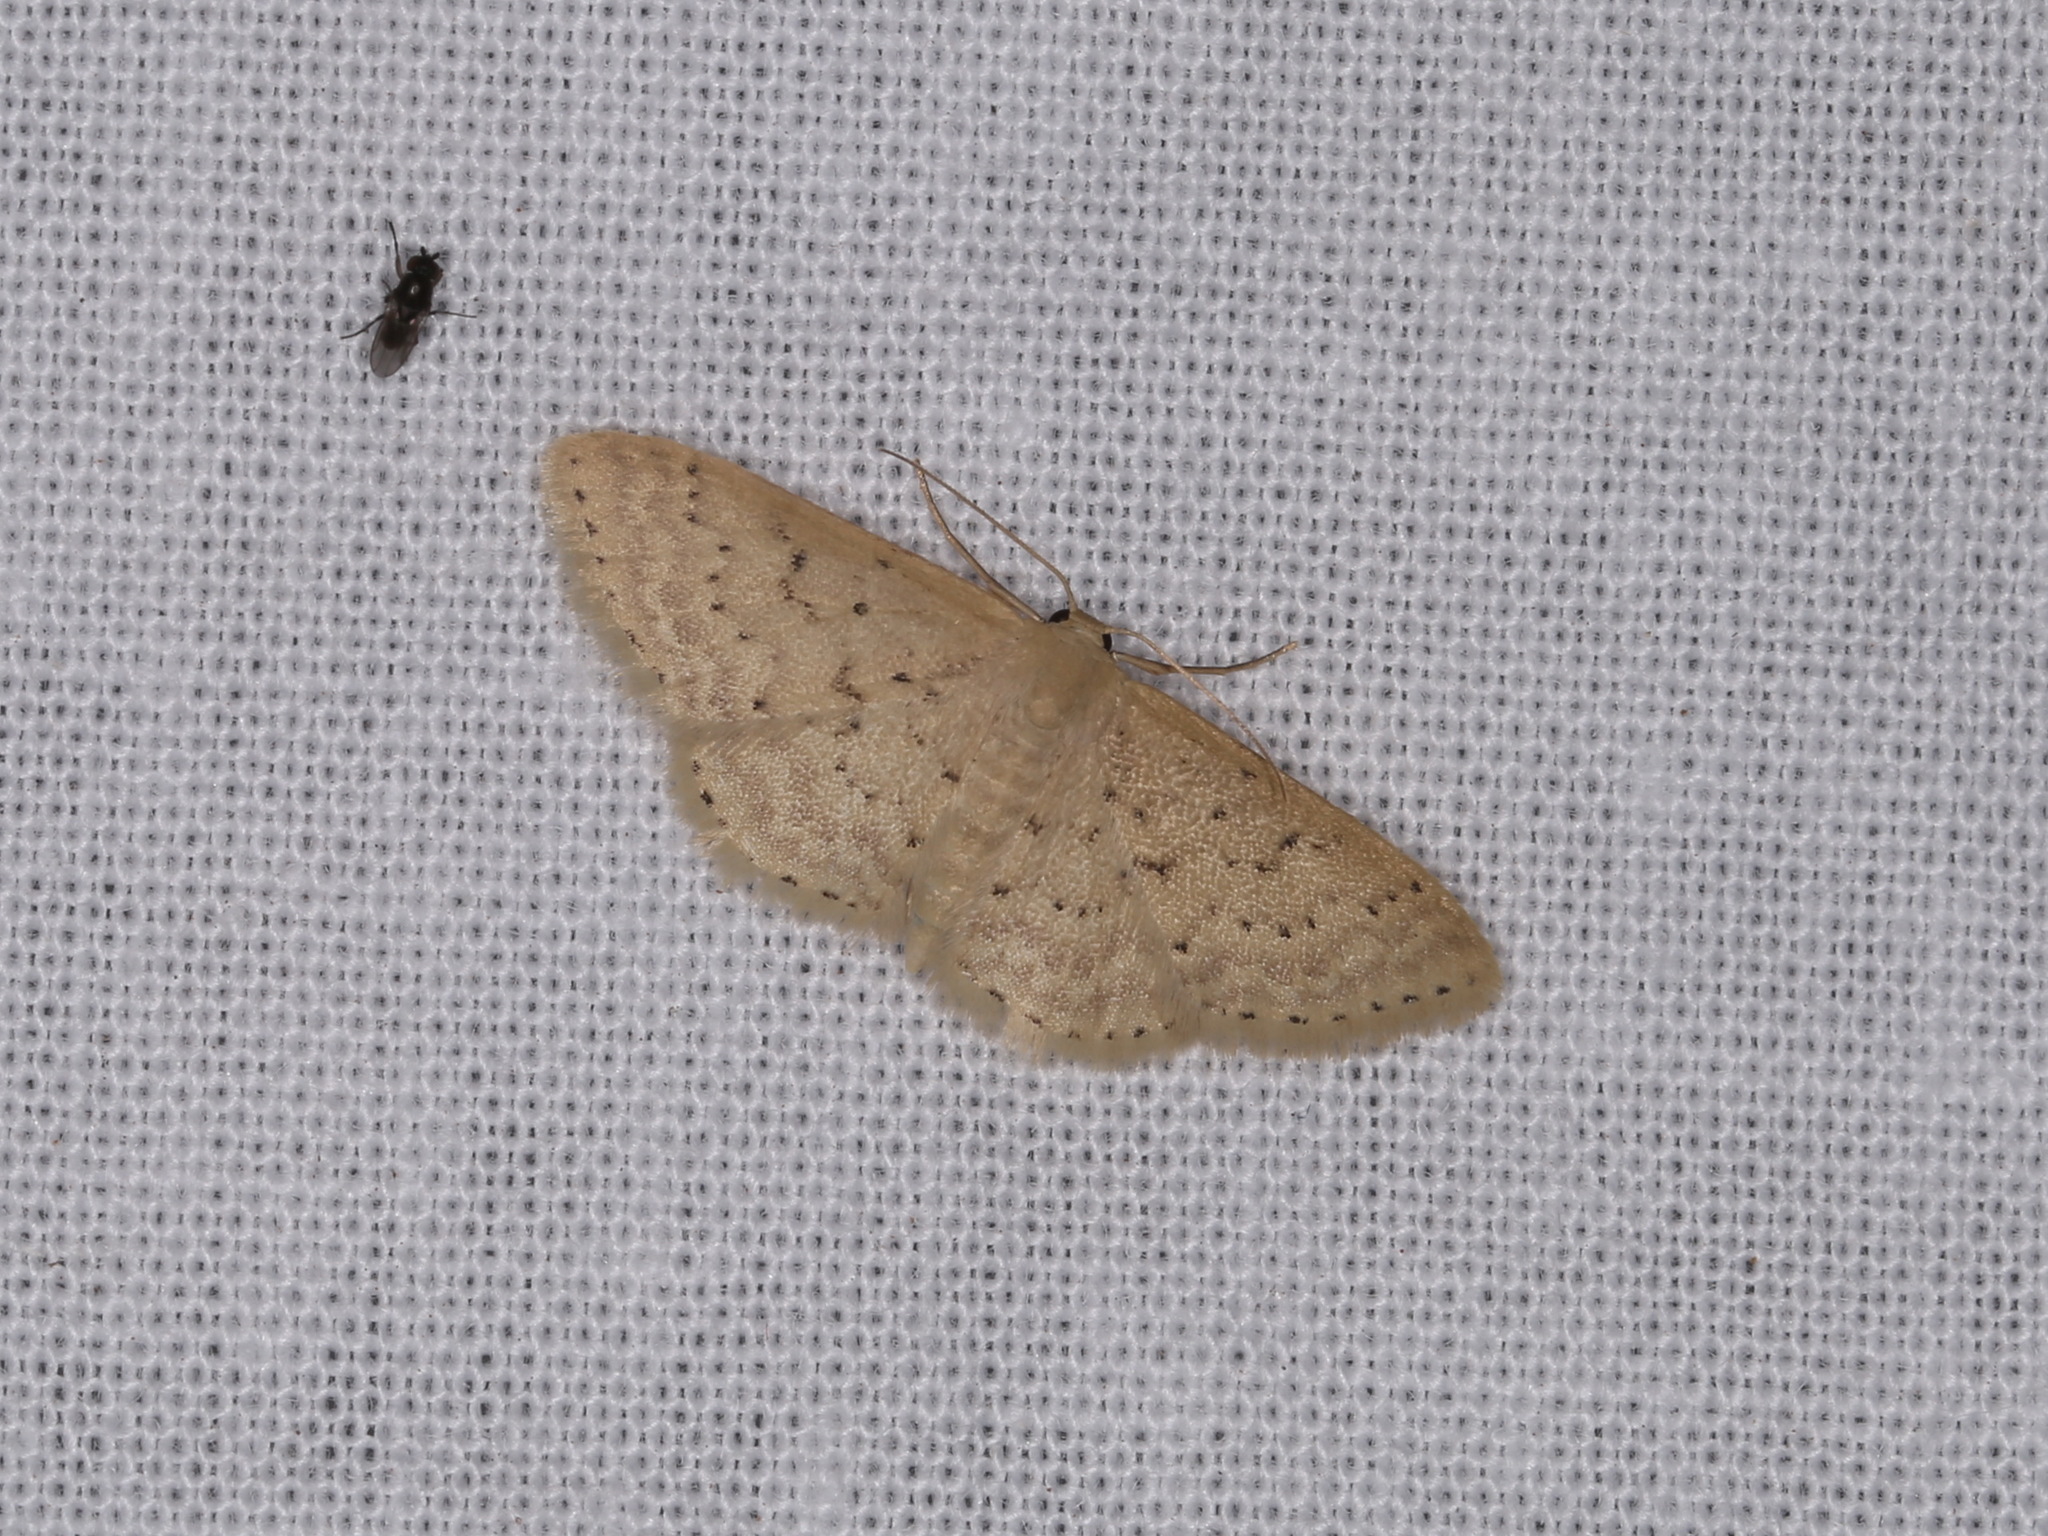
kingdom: Animalia
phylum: Arthropoda
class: Insecta
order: Lepidoptera
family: Geometridae
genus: Idaea
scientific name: Idaea philocosma
